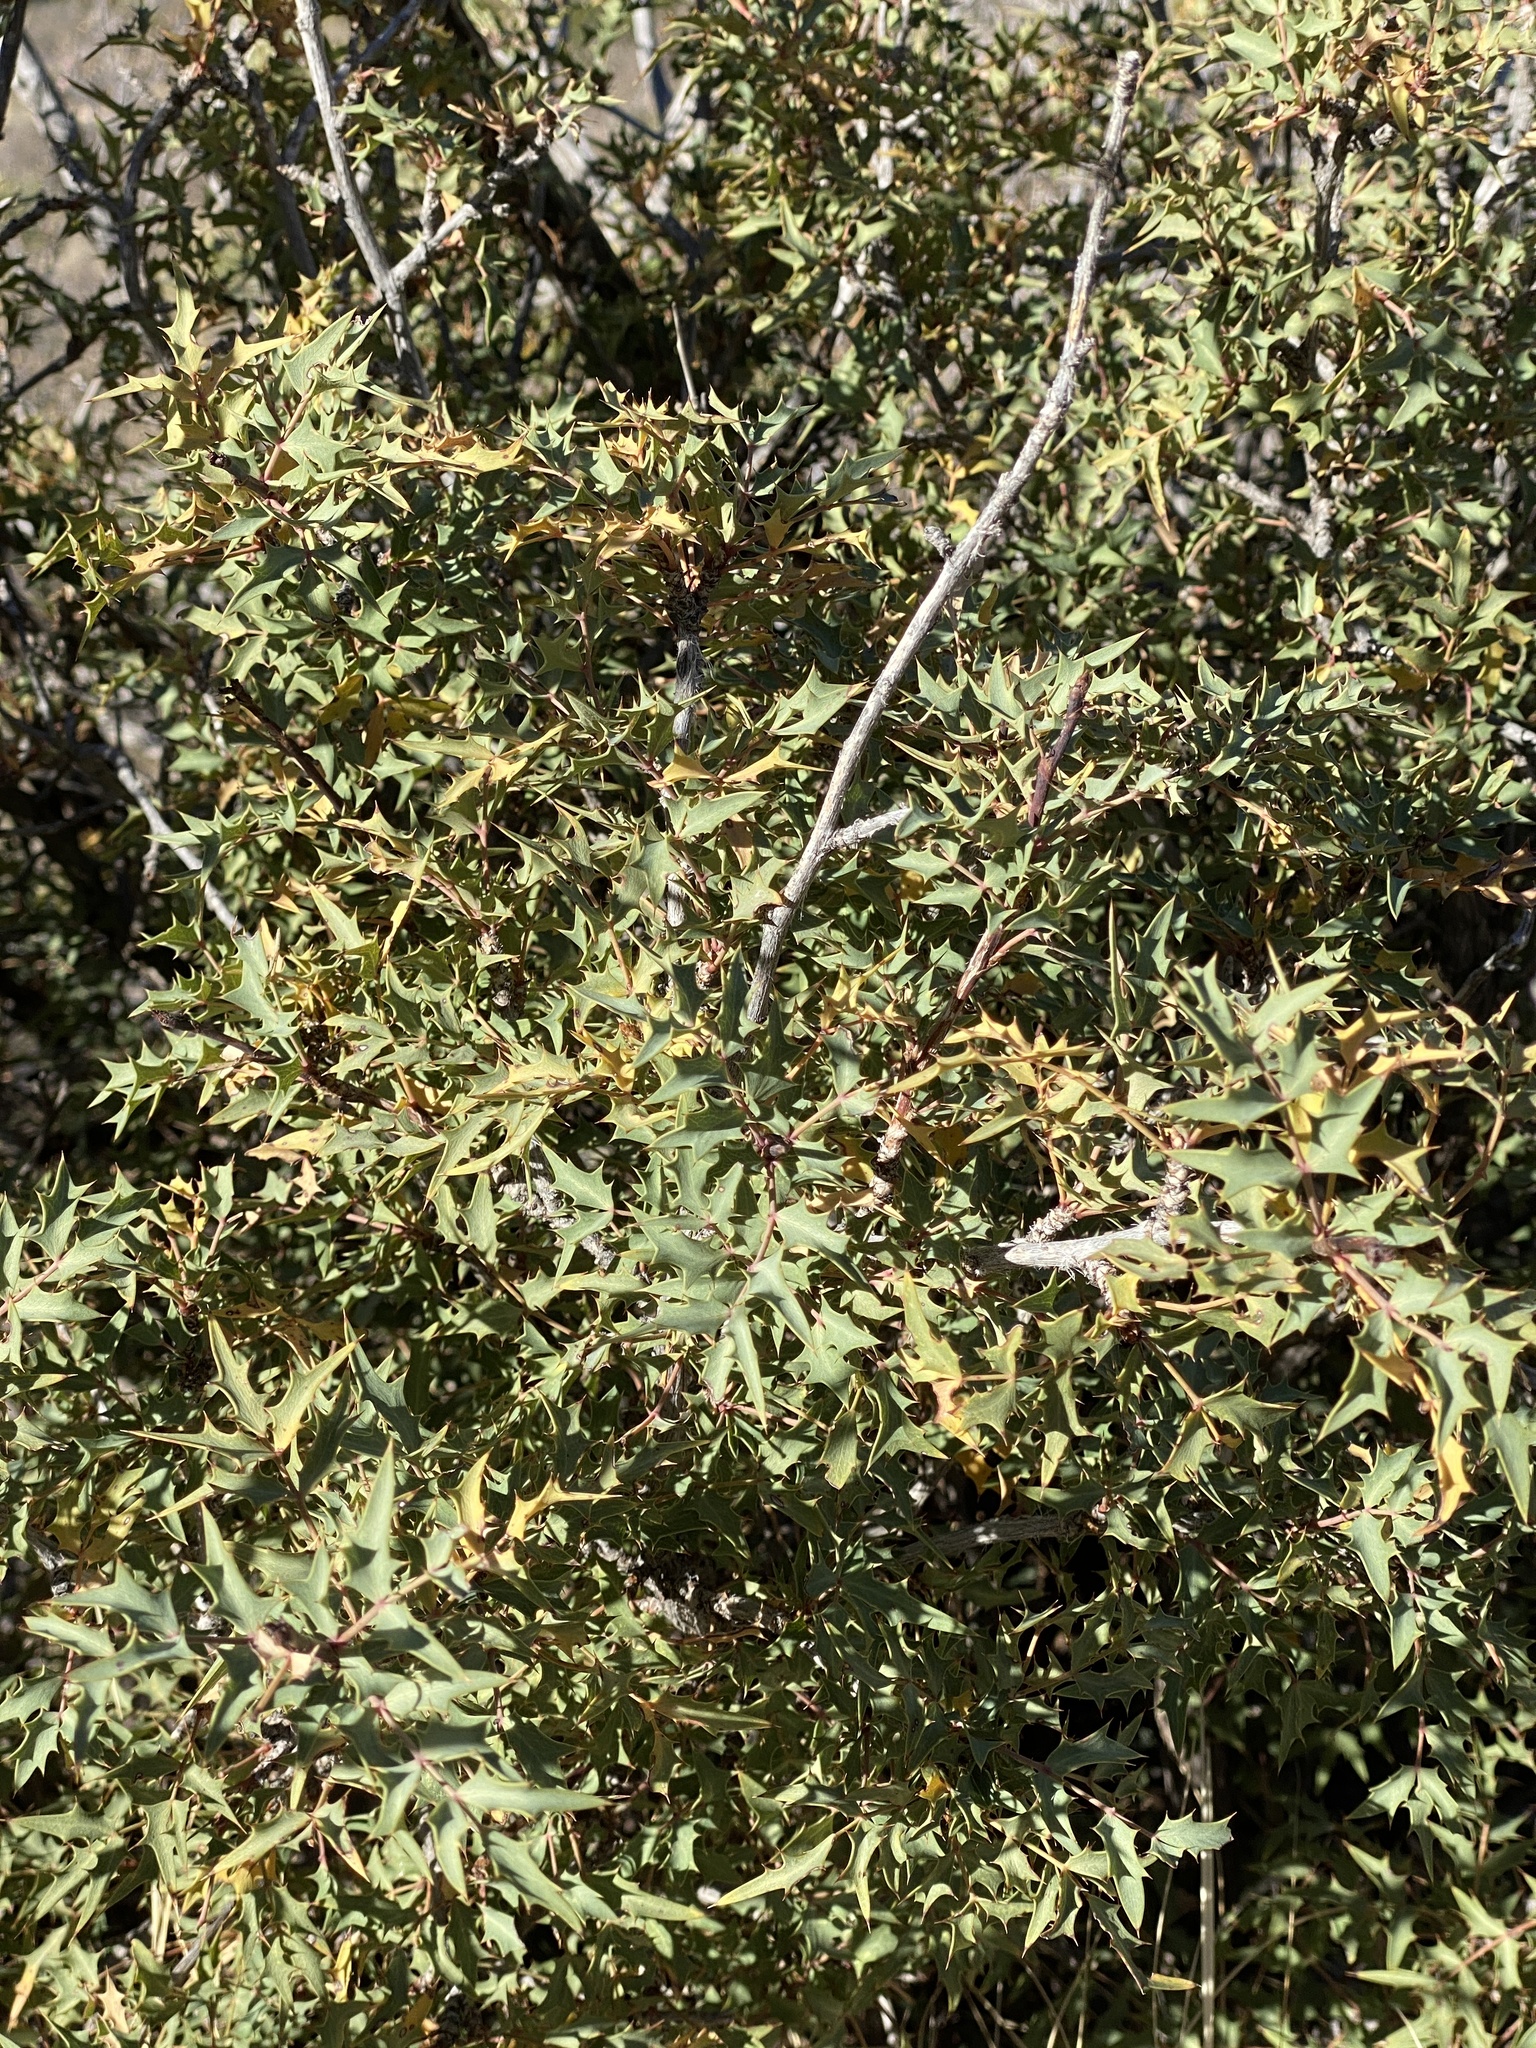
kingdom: Plantae
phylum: Tracheophyta
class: Magnoliopsida
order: Ranunculales
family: Berberidaceae
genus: Alloberberis
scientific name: Alloberberis haematocarpa
